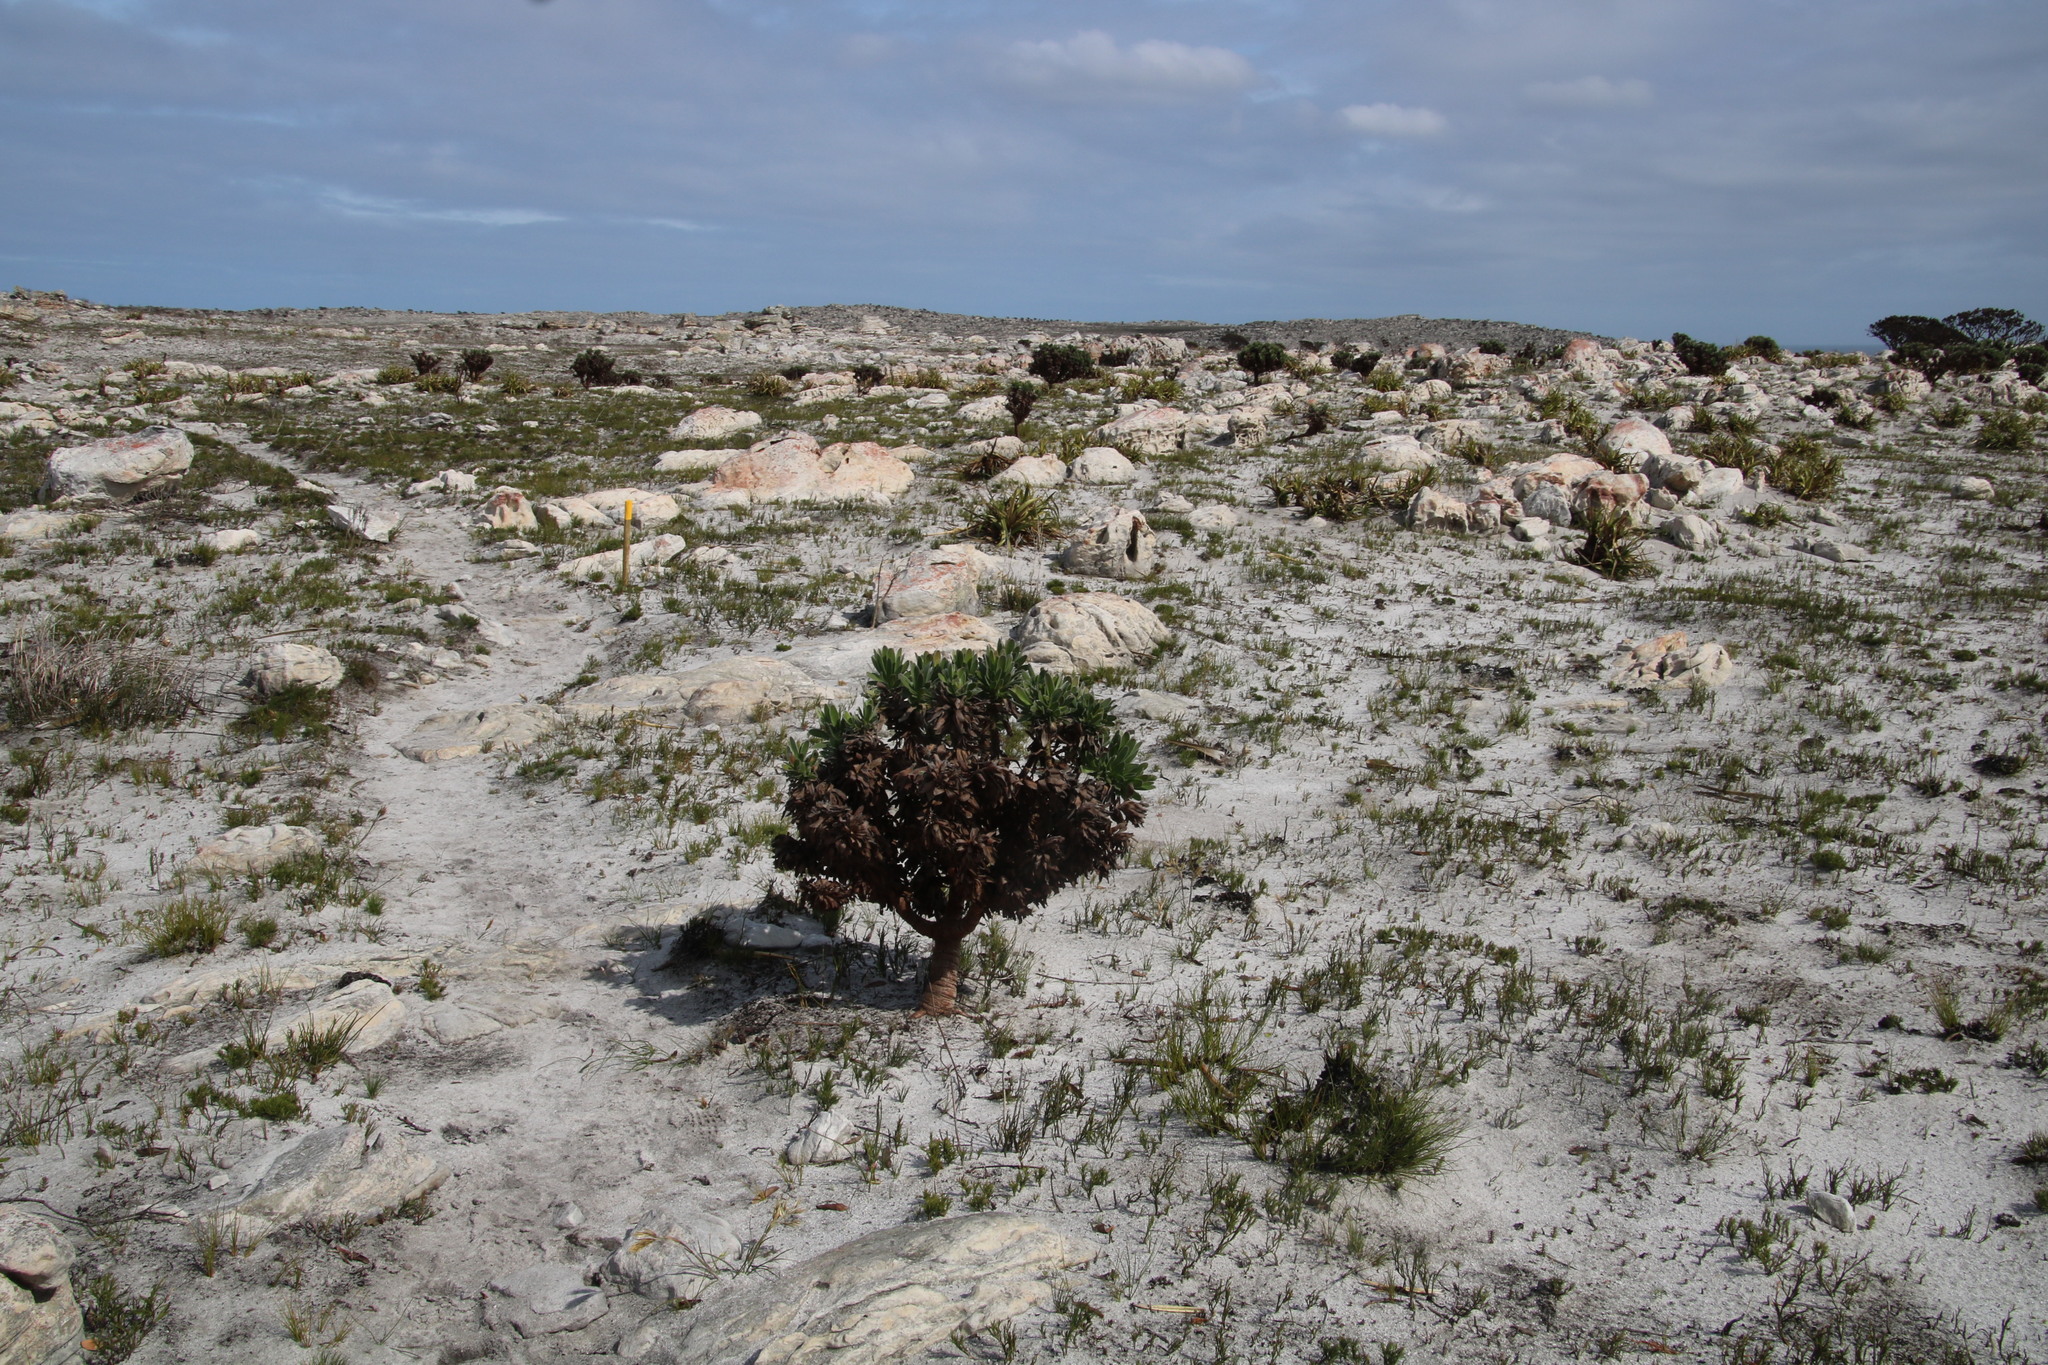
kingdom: Plantae
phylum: Tracheophyta
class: Magnoliopsida
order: Proteales
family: Proteaceae
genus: Mimetes
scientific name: Mimetes fimbriifolius
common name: Fringed bottlebrush
